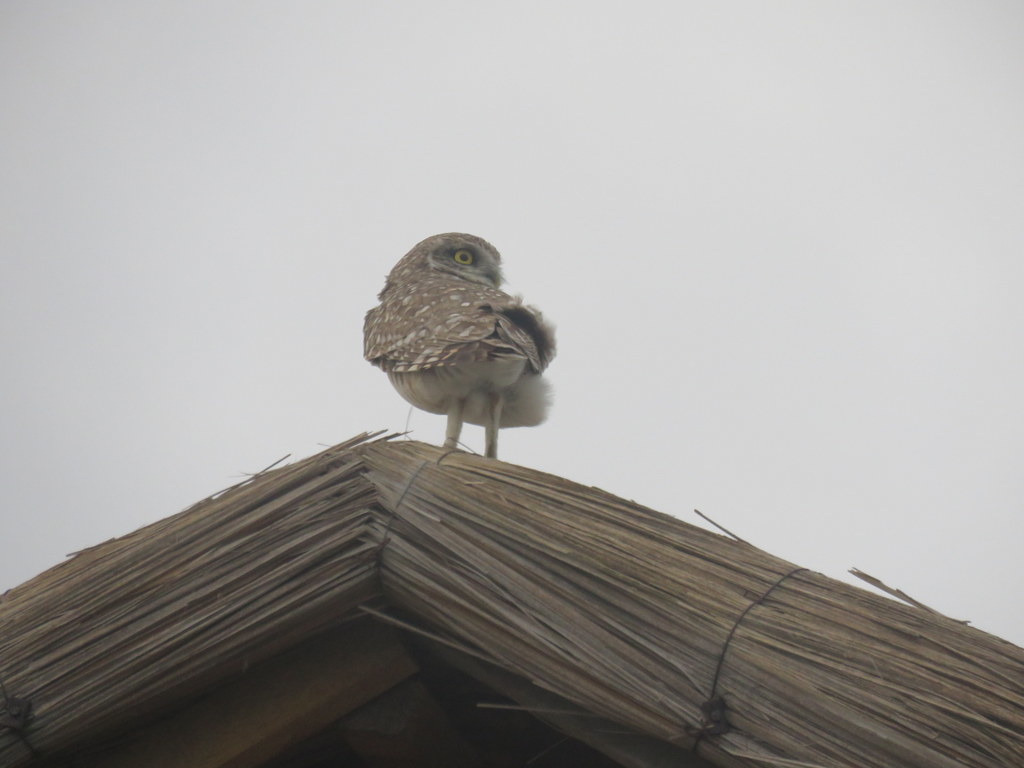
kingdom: Animalia
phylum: Chordata
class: Aves
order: Strigiformes
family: Strigidae
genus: Athene
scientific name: Athene cunicularia
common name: Burrowing owl
